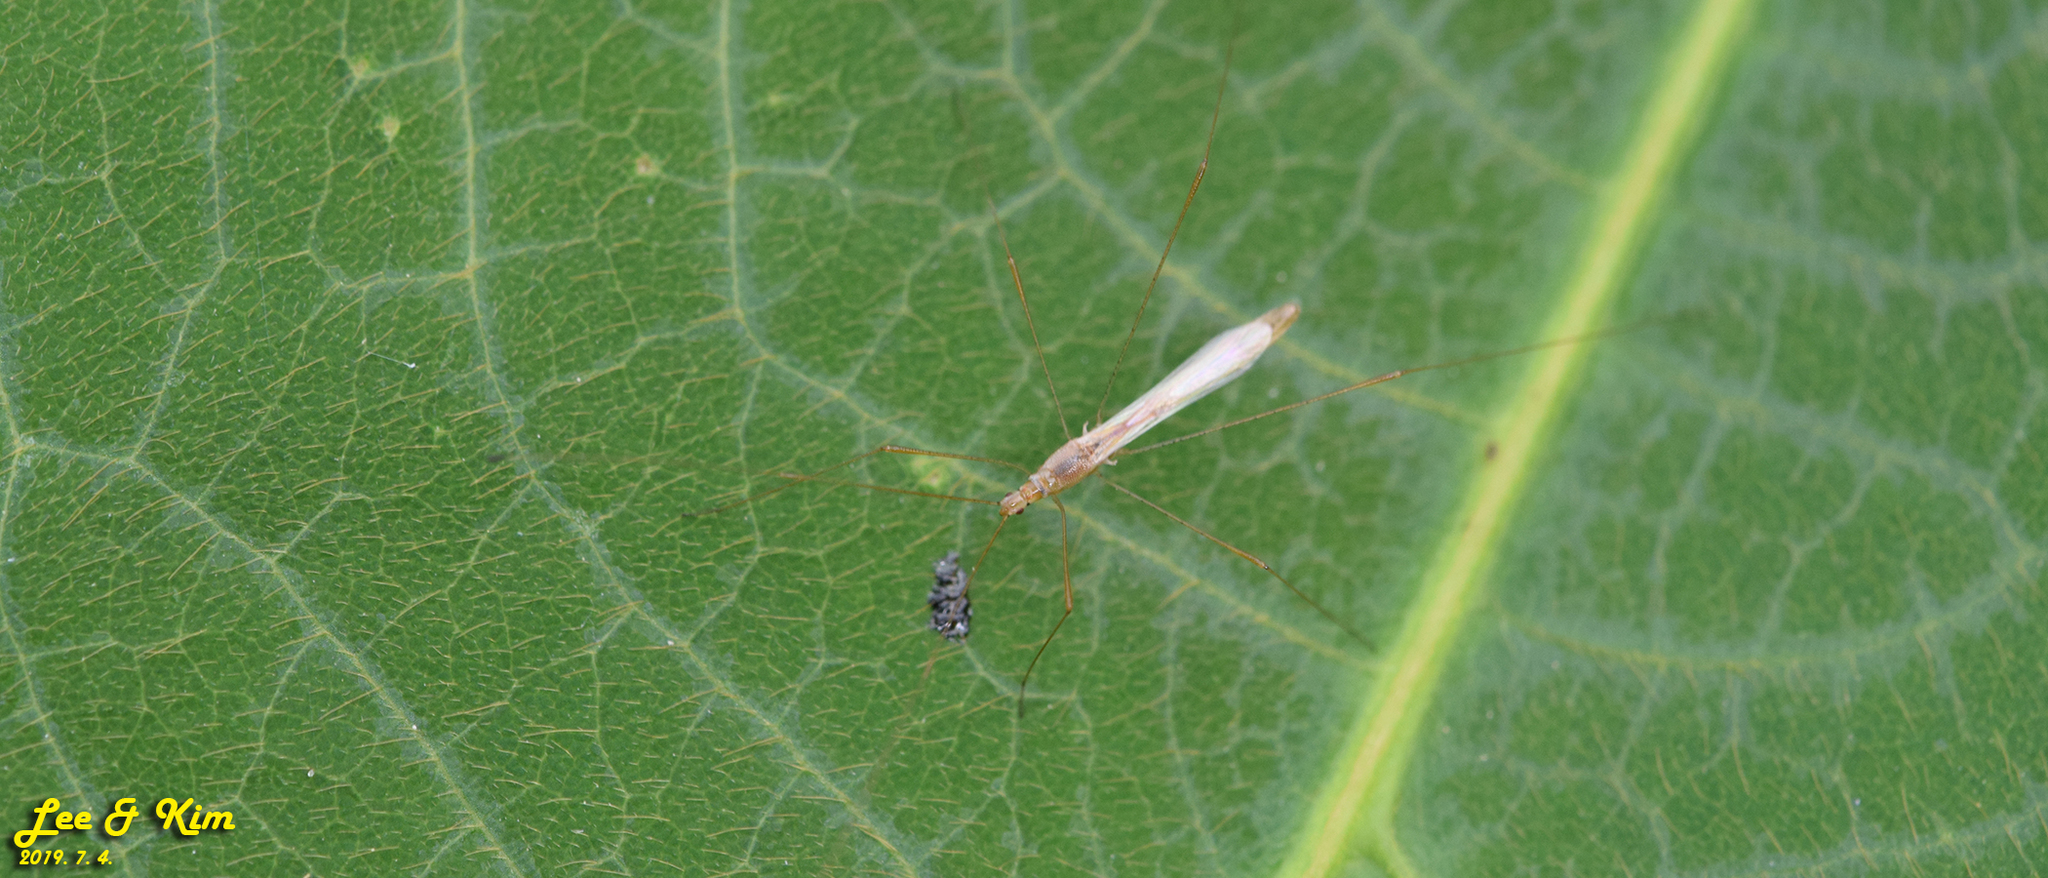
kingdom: Animalia
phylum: Arthropoda
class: Insecta
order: Hemiptera
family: Berytidae
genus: Yemma
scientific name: Yemma exilis
